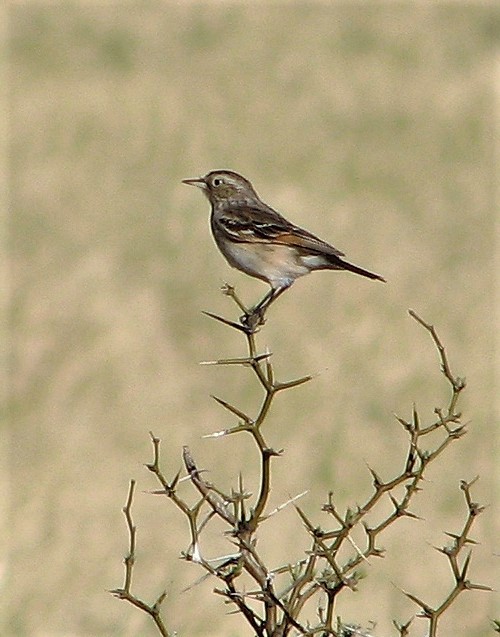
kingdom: Animalia
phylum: Chordata
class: Aves
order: Passeriformes
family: Tyrannidae
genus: Hymenops
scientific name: Hymenops perspicillatus
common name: Spectacled tyrant
